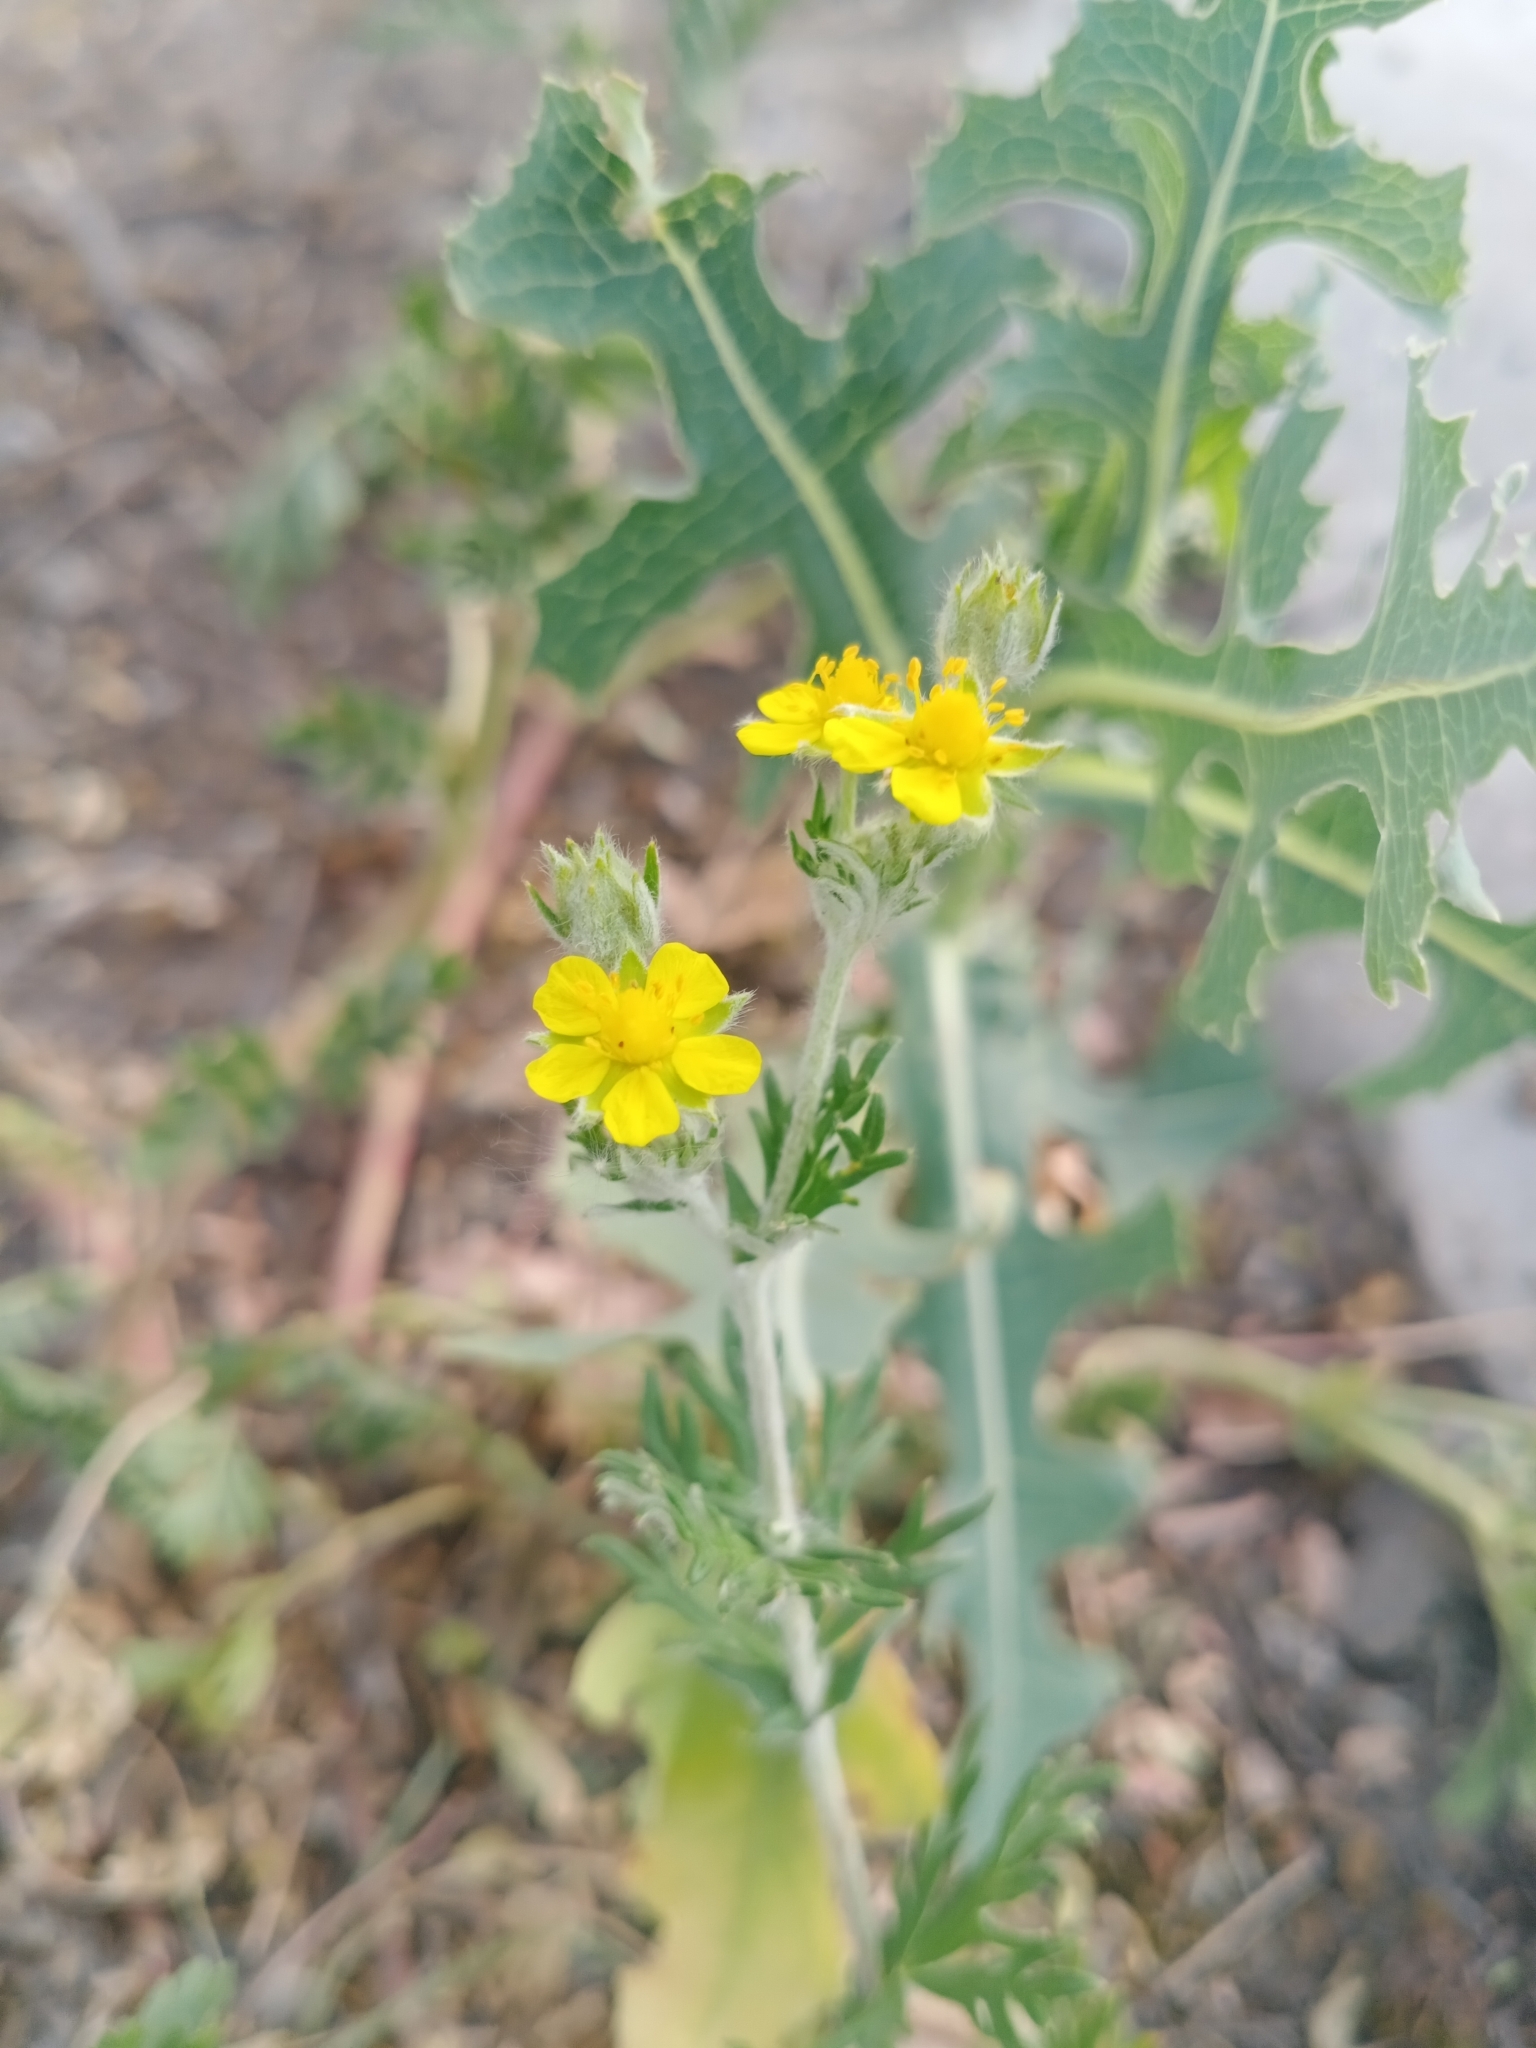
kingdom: Plantae
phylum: Tracheophyta
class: Magnoliopsida
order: Rosales
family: Rosaceae
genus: Potentilla
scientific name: Potentilla argentea
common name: Hoary cinquefoil
